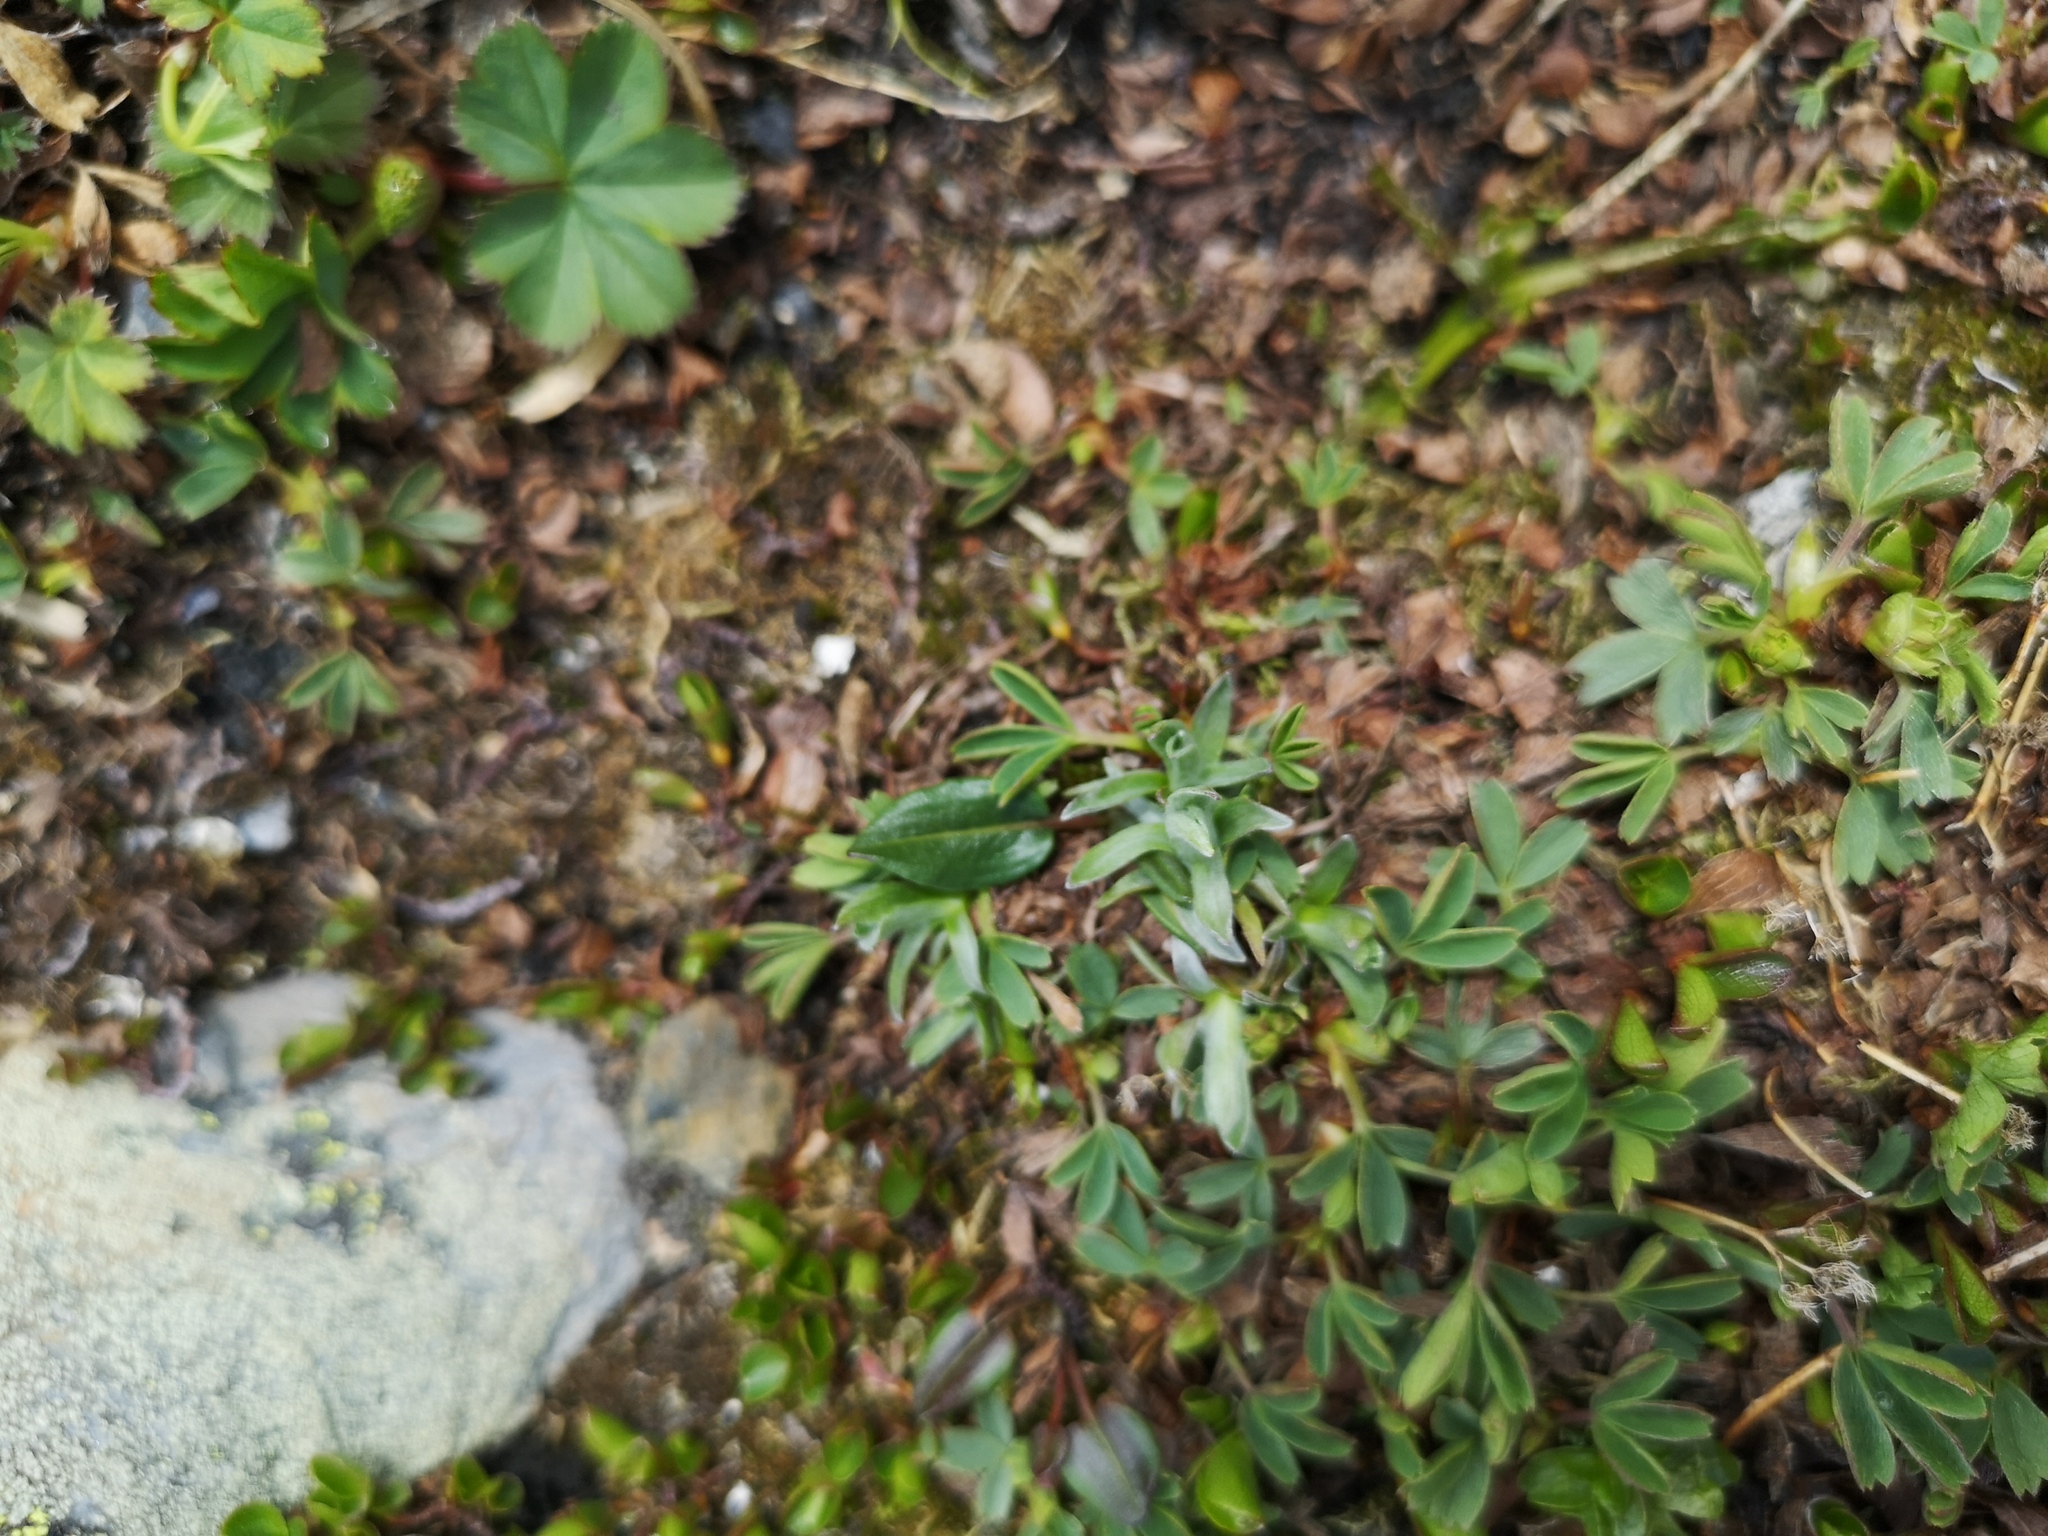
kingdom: Plantae
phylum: Tracheophyta
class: Magnoliopsida
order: Rosales
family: Rosaceae
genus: Sibbaldia
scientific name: Sibbaldia procumbens
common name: Creeping sibbaldia
